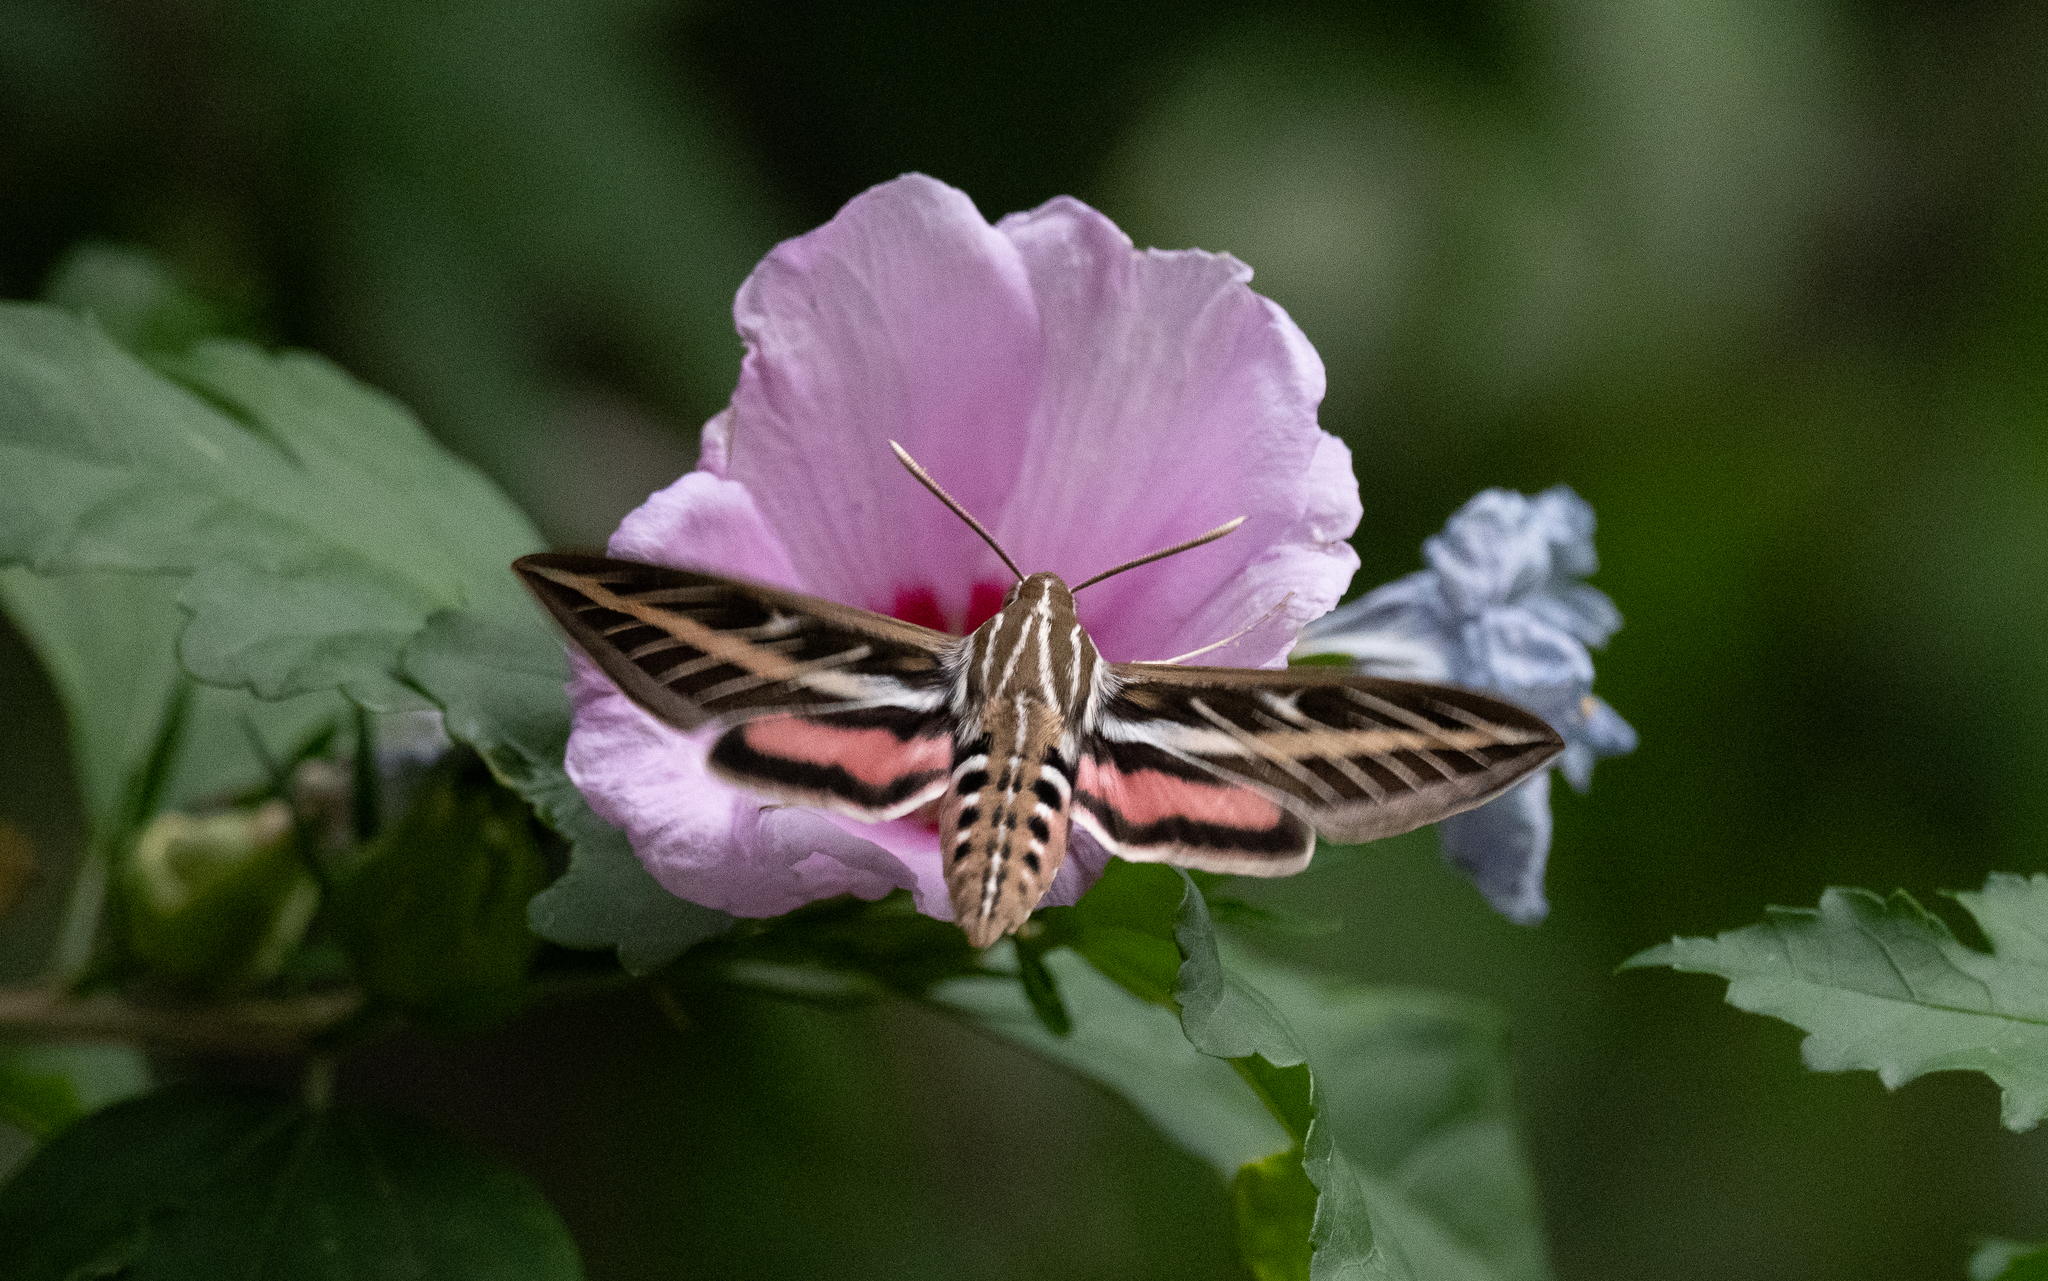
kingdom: Animalia
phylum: Arthropoda
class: Insecta
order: Lepidoptera
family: Sphingidae
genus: Hyles
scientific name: Hyles lineata
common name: White-lined sphinx
